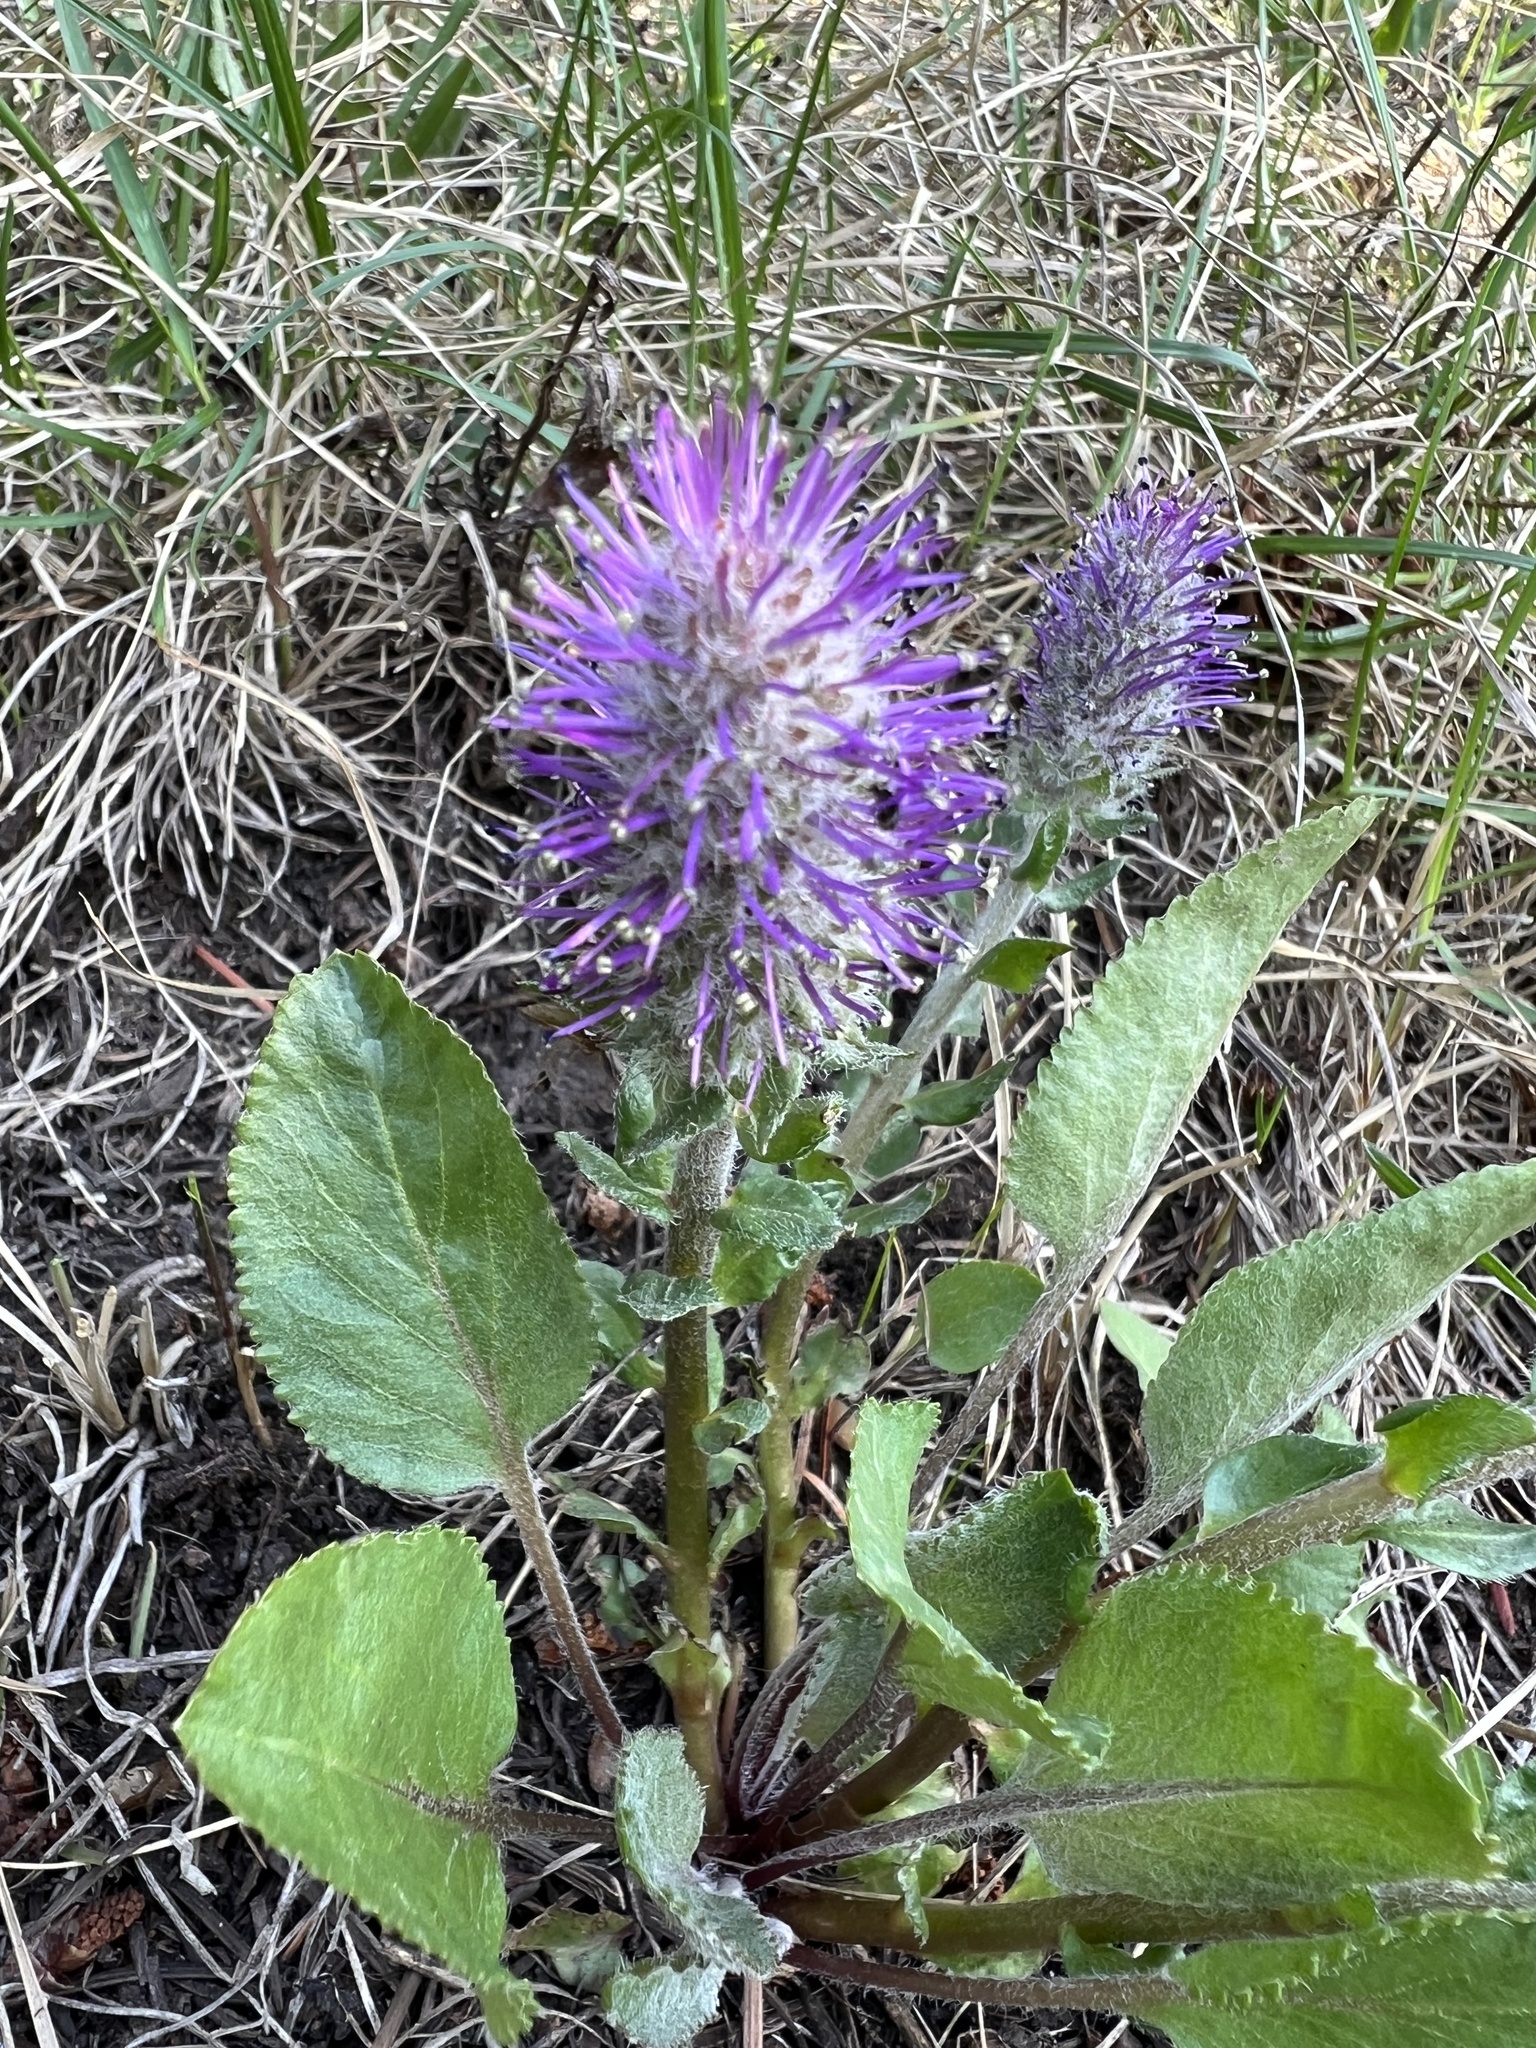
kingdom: Plantae
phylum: Tracheophyta
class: Magnoliopsida
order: Lamiales
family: Plantaginaceae
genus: Synthyris
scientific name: Synthyris wyomingensis
